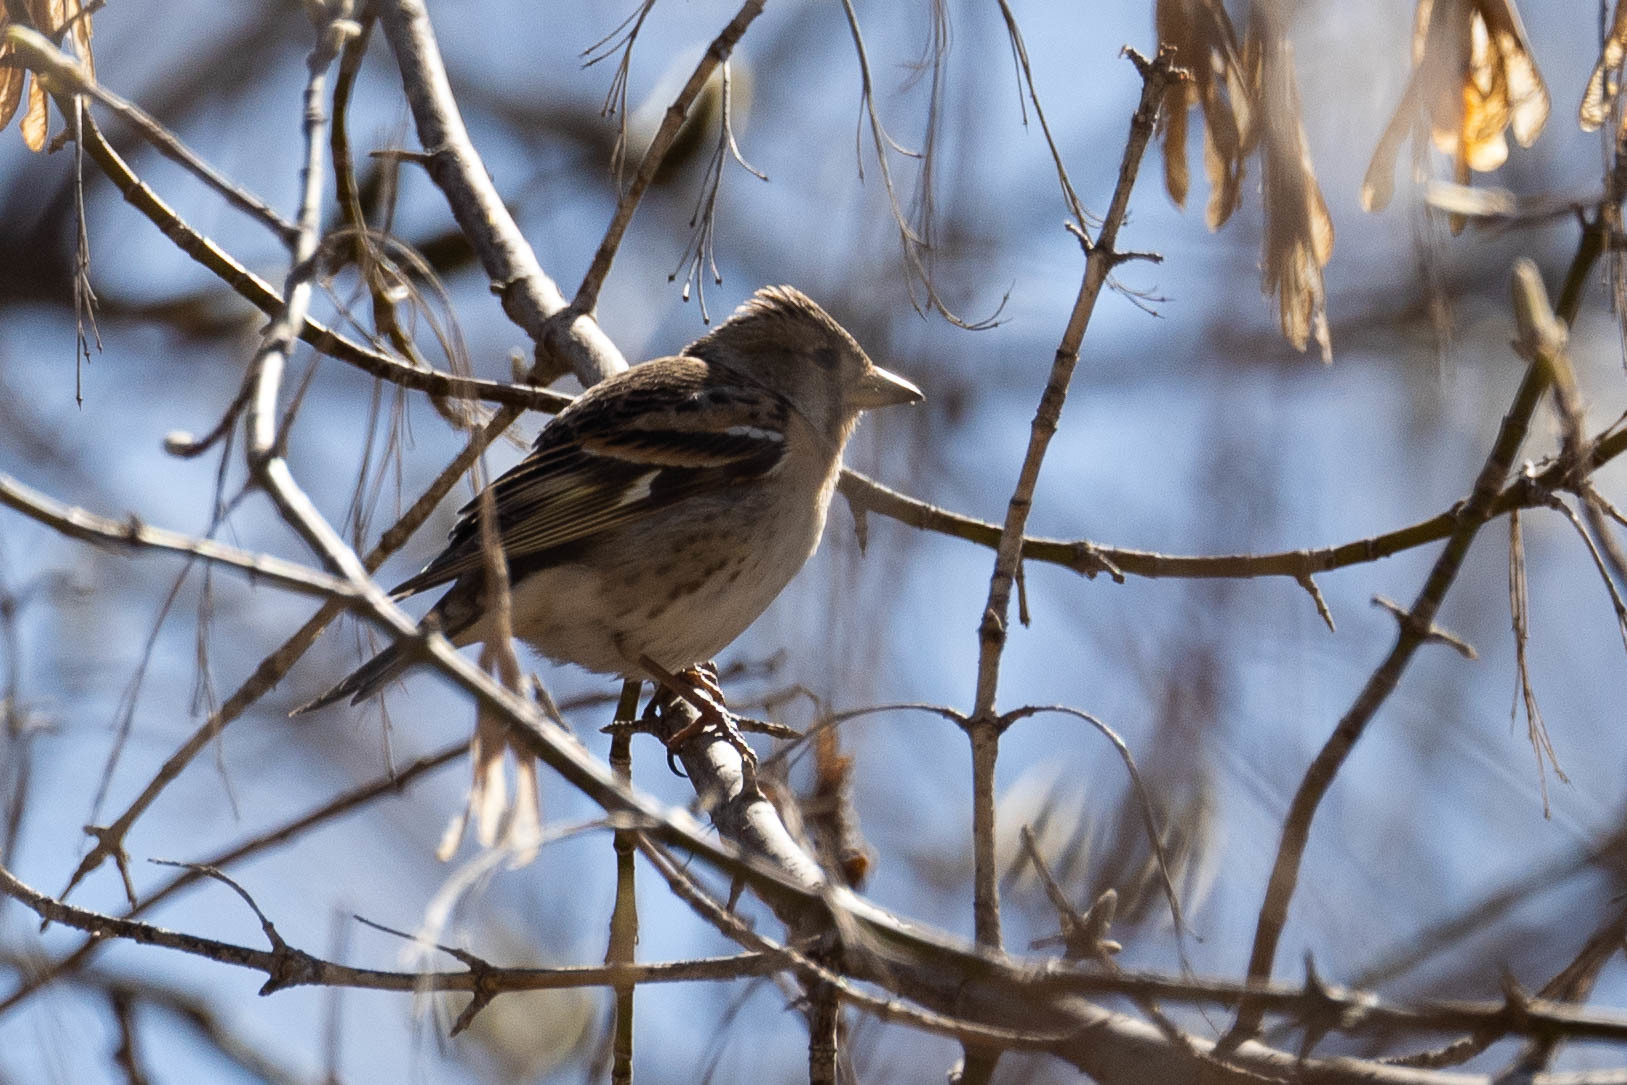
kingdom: Animalia
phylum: Chordata
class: Aves
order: Passeriformes
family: Fringillidae
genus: Fringilla
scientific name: Fringilla montifringilla
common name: Brambling
